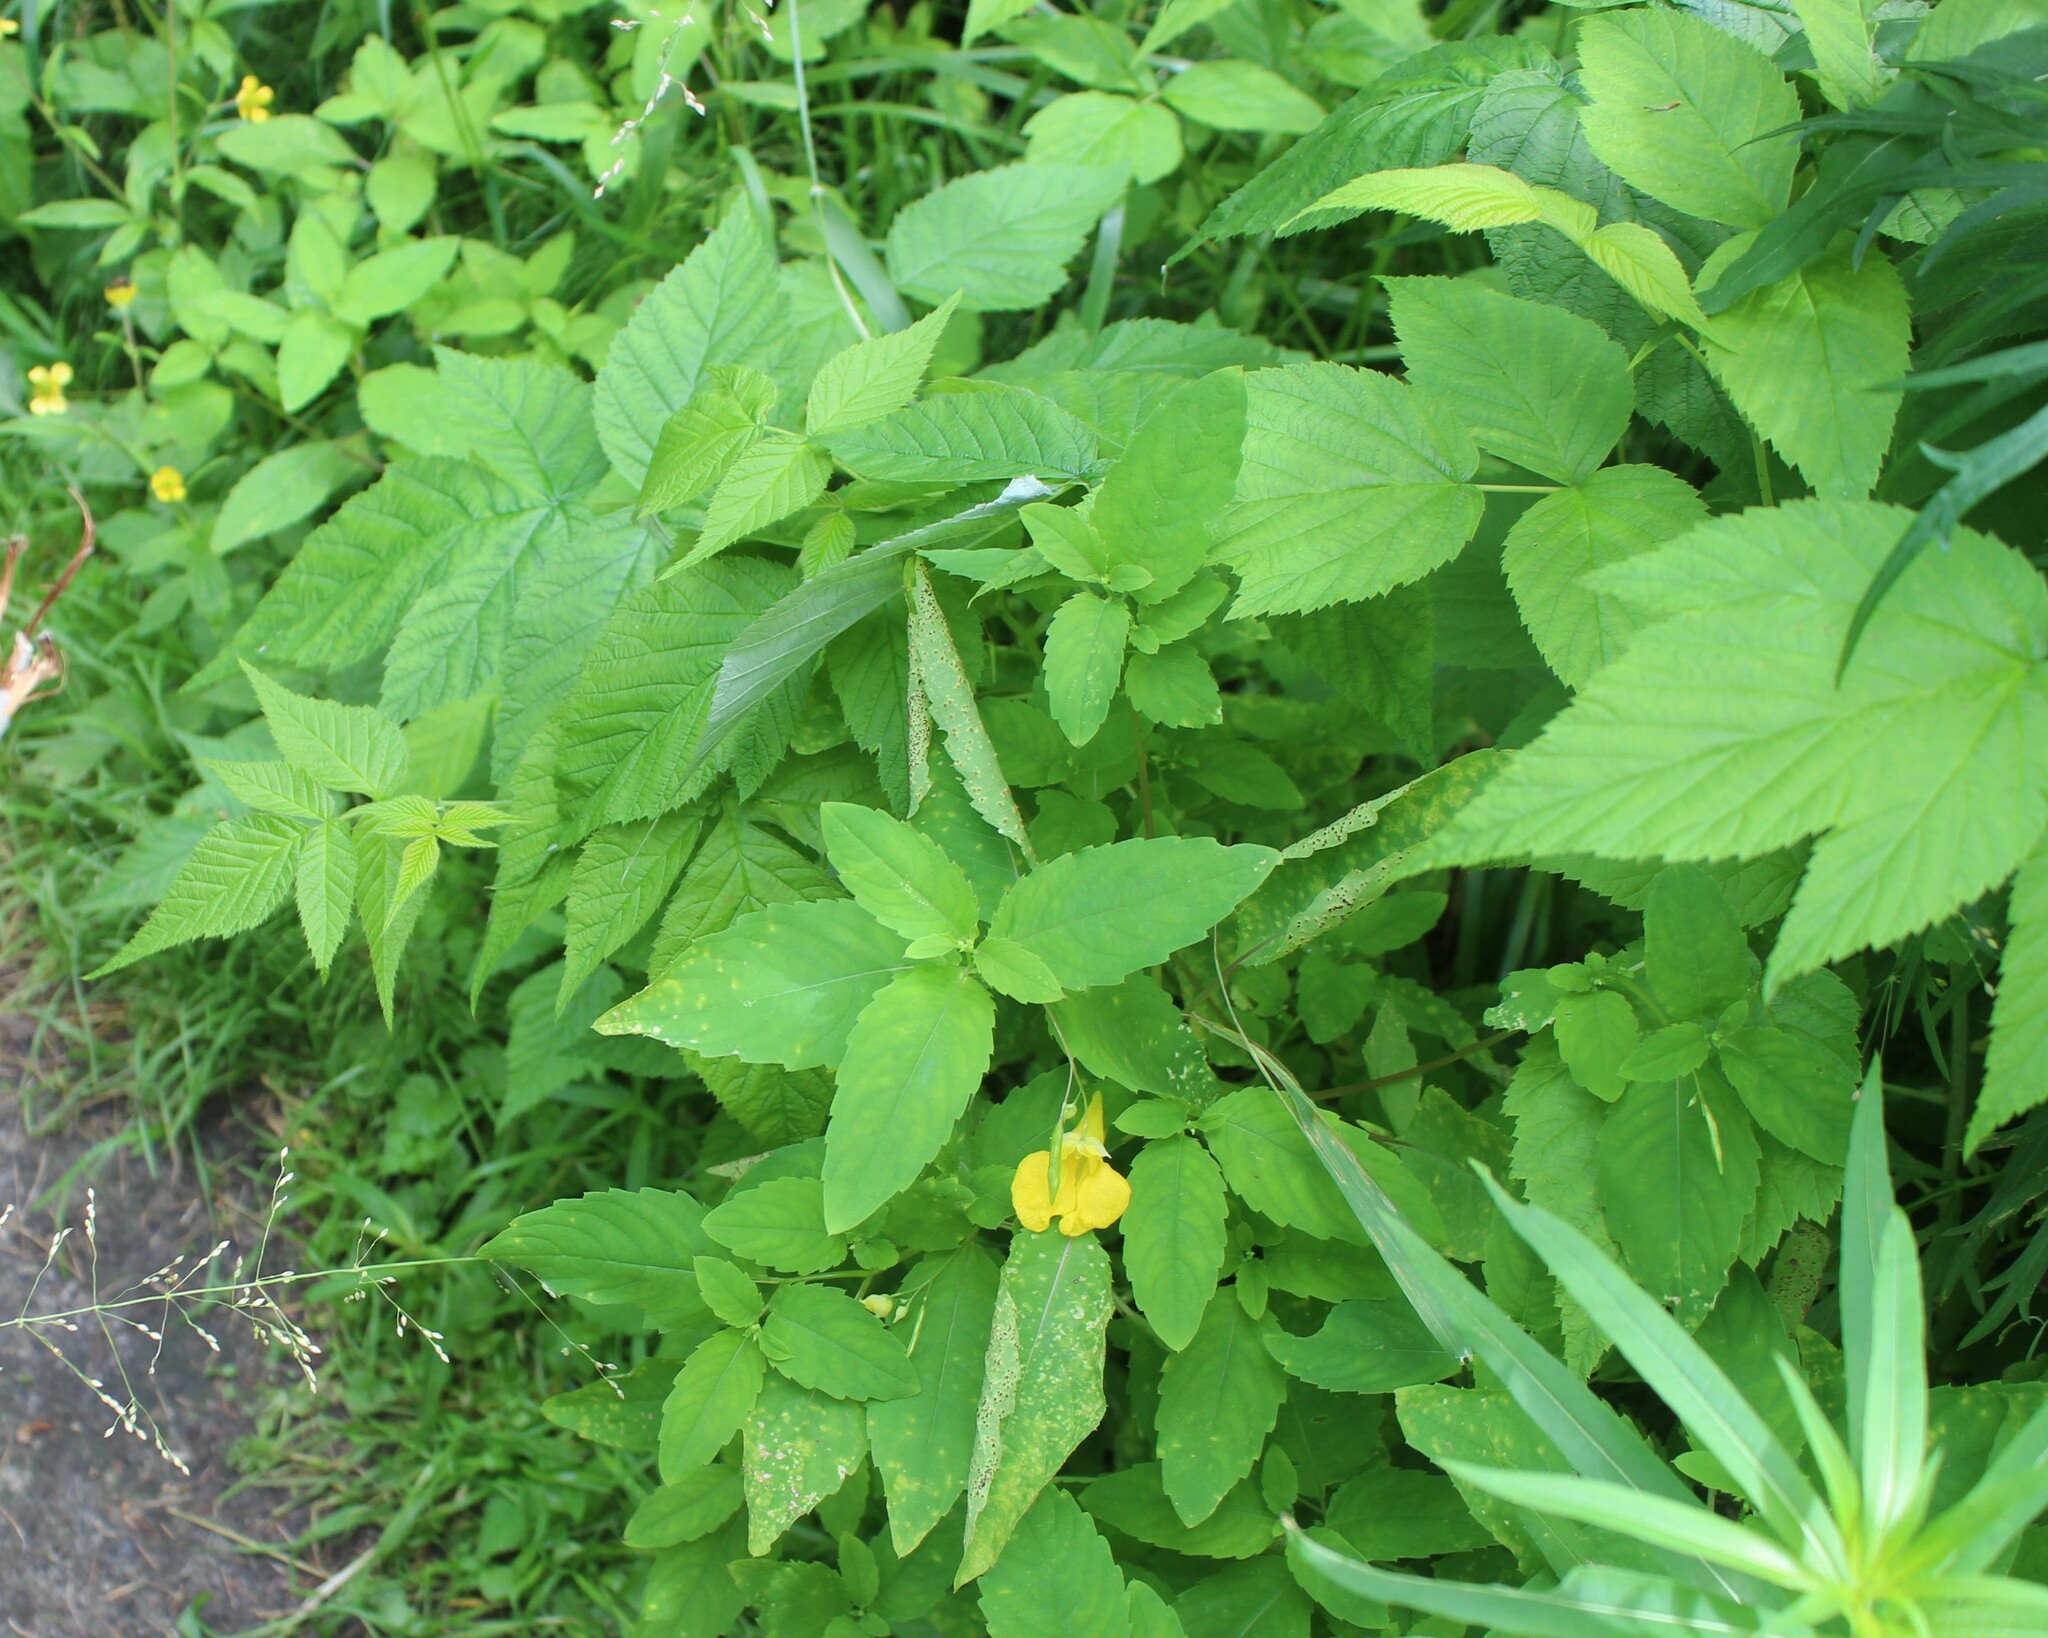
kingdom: Plantae
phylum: Tracheophyta
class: Magnoliopsida
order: Ericales
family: Balsaminaceae
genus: Impatiens
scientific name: Impatiens noli-tangere
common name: Touch-me-not balsam
